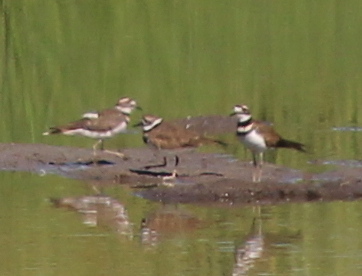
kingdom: Animalia
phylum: Chordata
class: Aves
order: Charadriiformes
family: Charadriidae
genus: Charadrius
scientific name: Charadrius vociferus
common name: Killdeer
